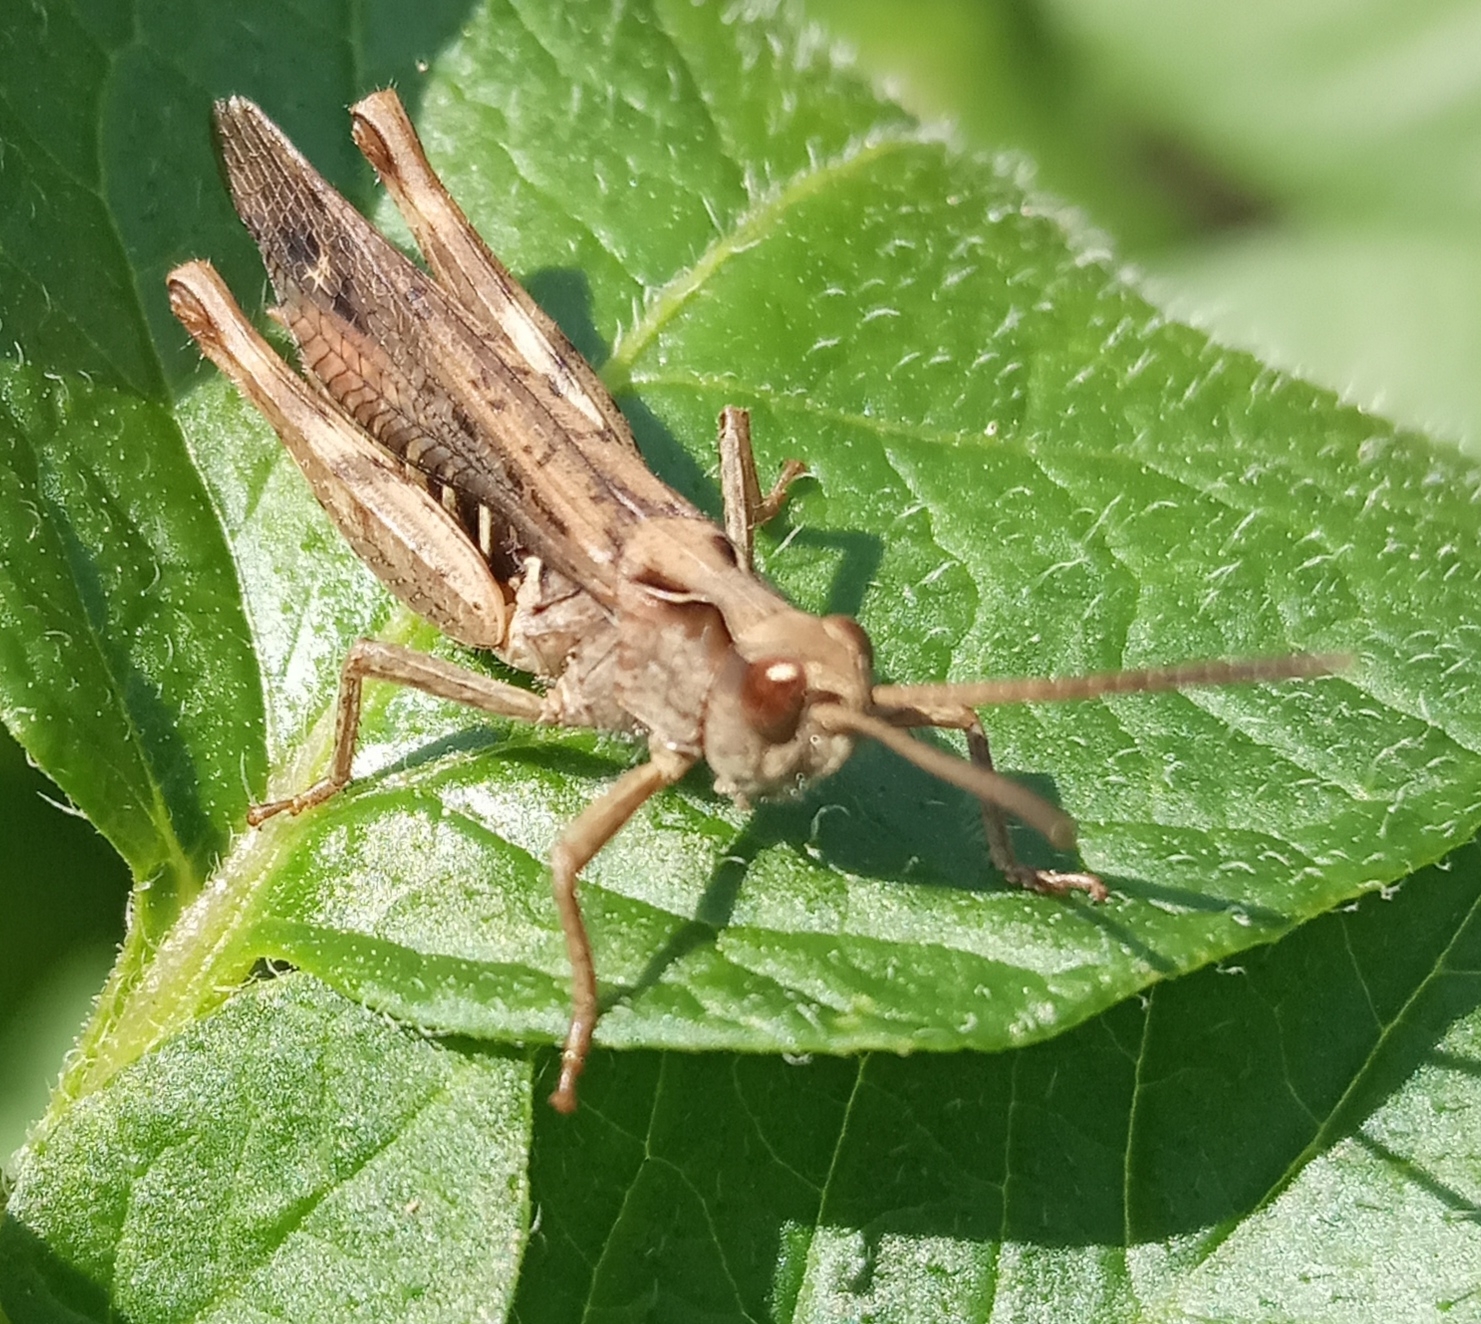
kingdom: Animalia
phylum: Arthropoda
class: Insecta
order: Orthoptera
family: Acrididae
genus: Chorthippus
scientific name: Chorthippus biguttulus
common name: Bow-winged grasshopper
